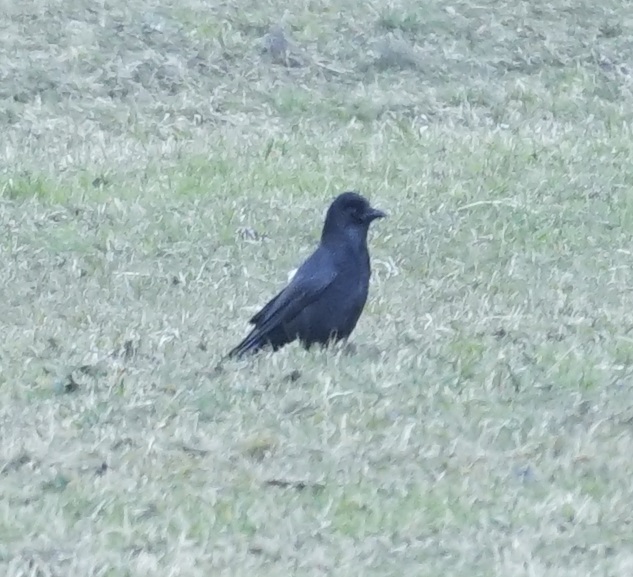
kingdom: Animalia
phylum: Chordata
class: Aves
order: Passeriformes
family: Corvidae
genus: Corvus
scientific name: Corvus corone
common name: Carrion crow
